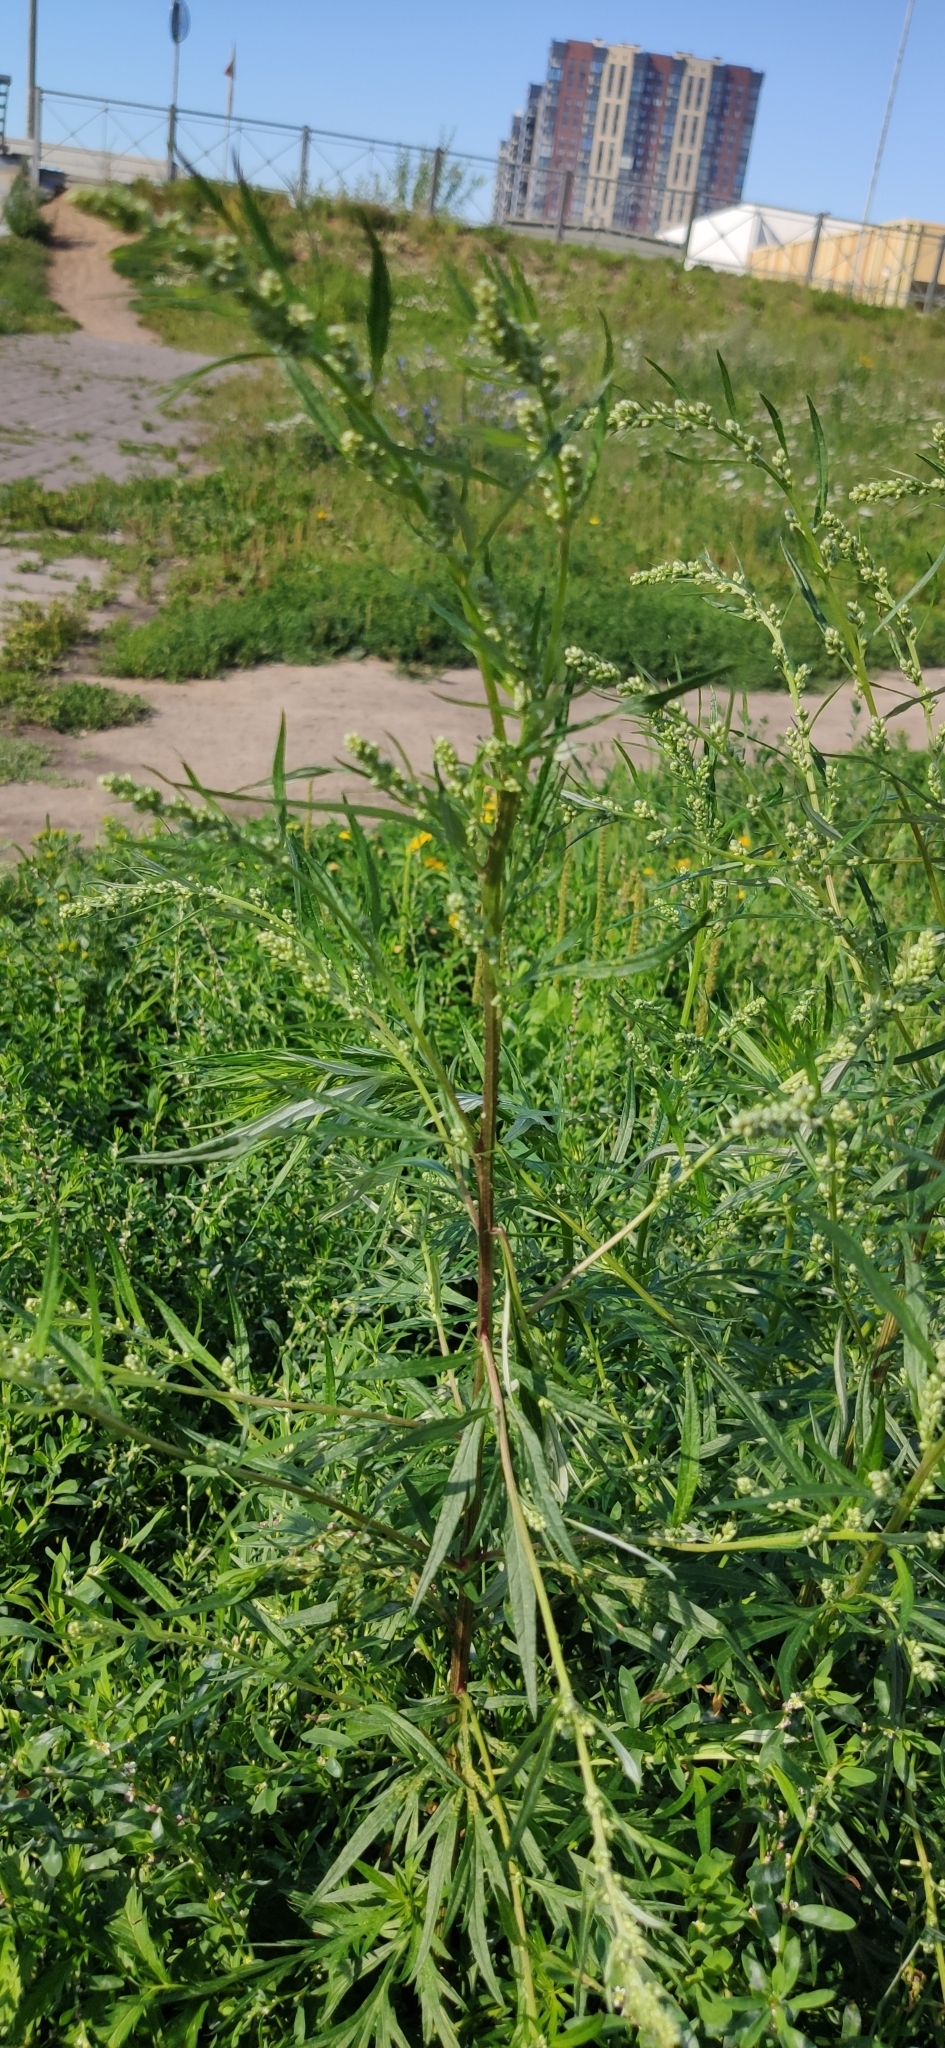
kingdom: Plantae
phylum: Tracheophyta
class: Magnoliopsida
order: Asterales
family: Asteraceae
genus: Artemisia
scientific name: Artemisia vulgaris
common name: Mugwort
